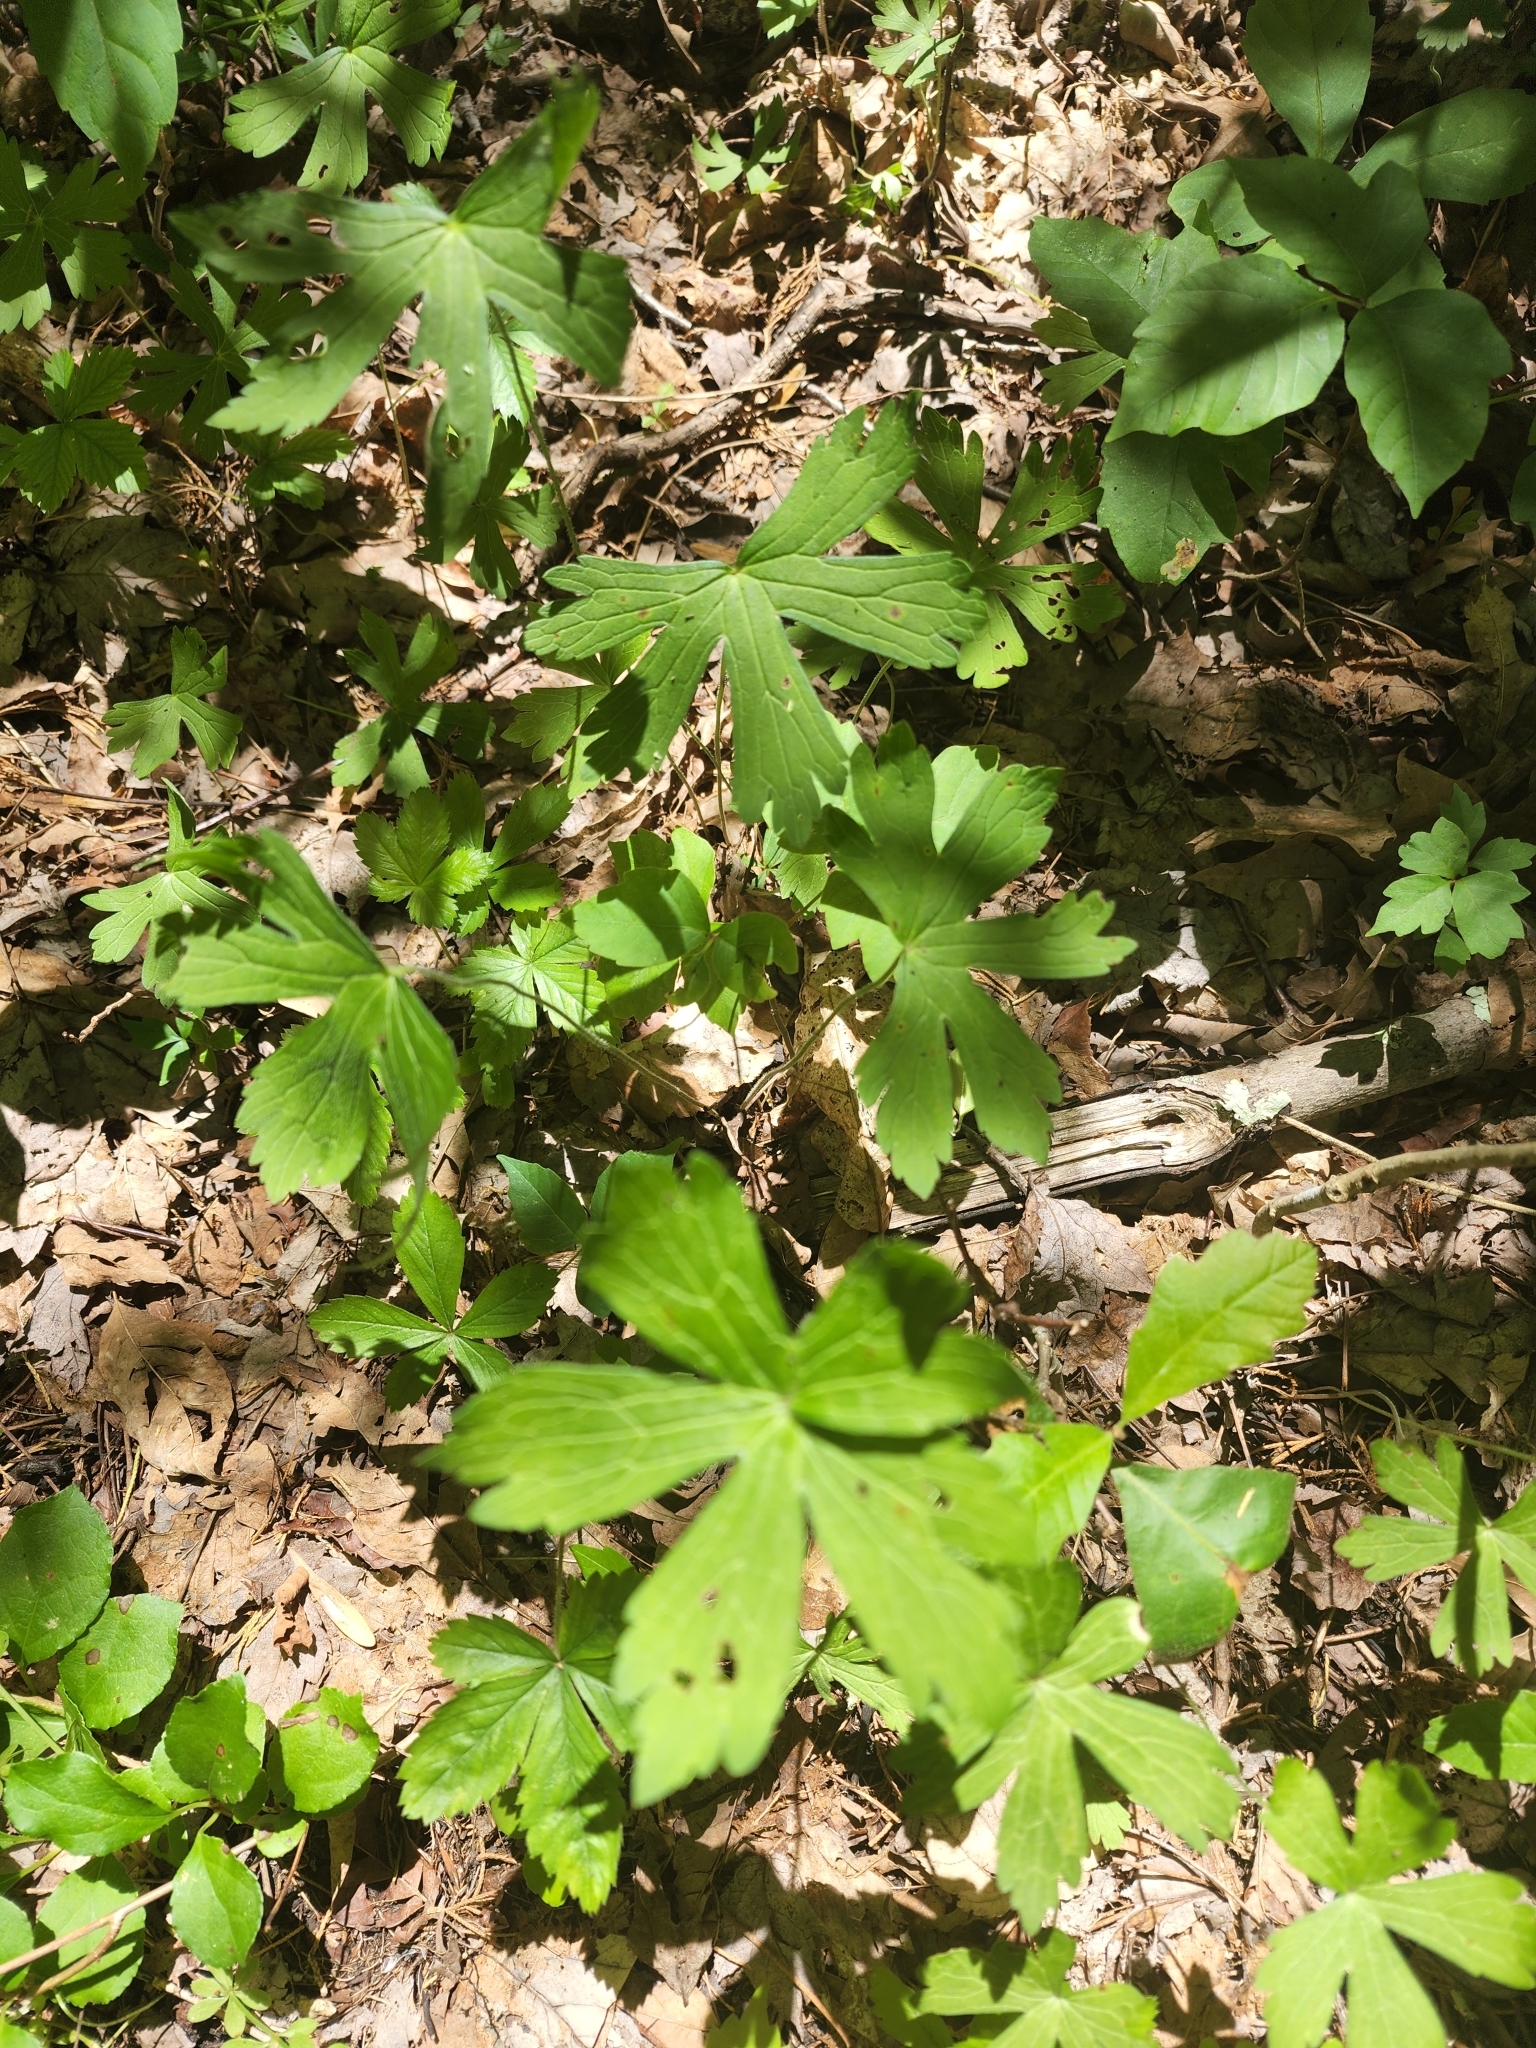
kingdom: Plantae
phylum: Tracheophyta
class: Magnoliopsida
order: Geraniales
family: Geraniaceae
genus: Geranium
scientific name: Geranium maculatum
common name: Spotted geranium
